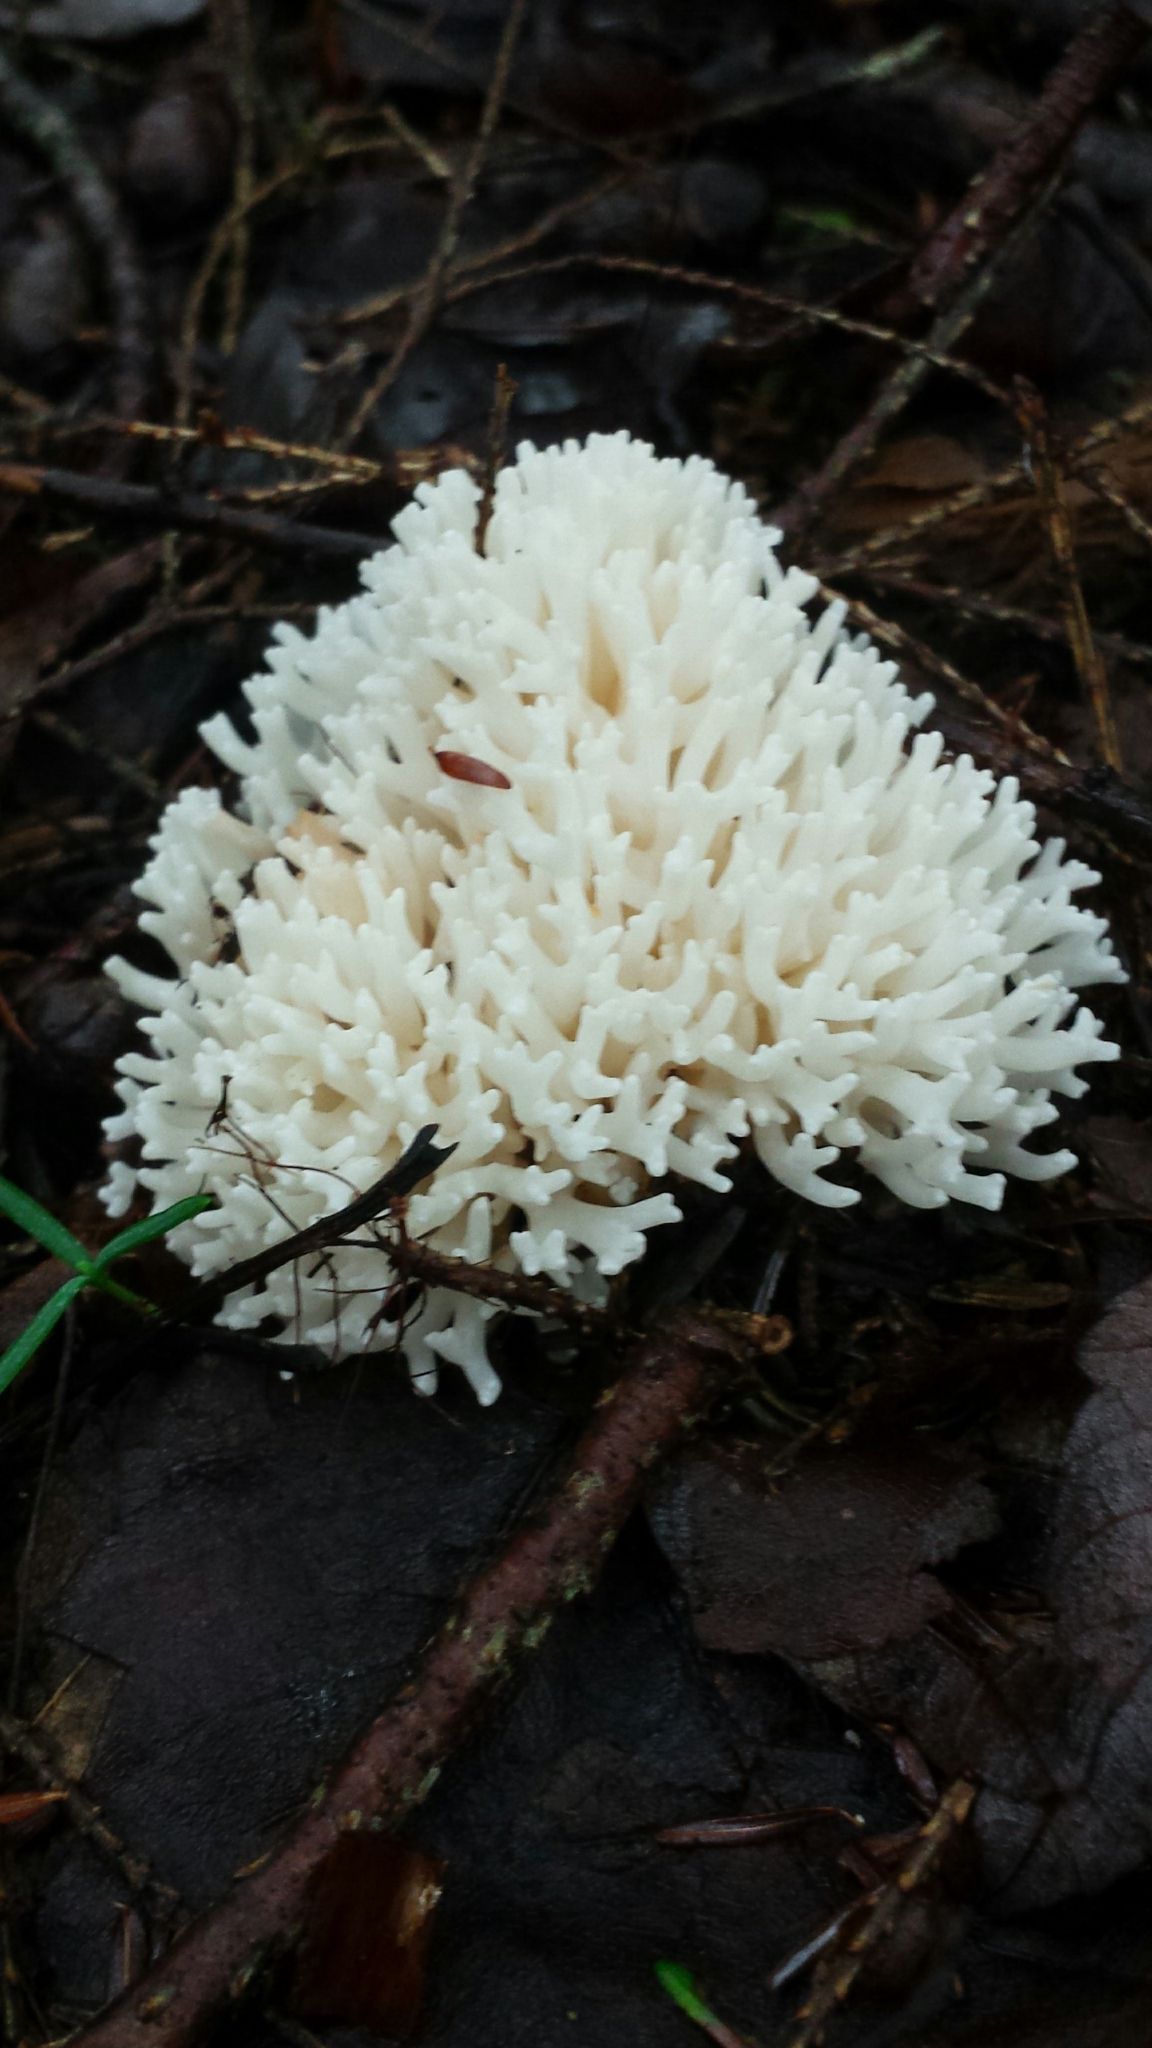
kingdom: Fungi
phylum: Basidiomycota
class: Agaricomycetes
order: Agaricales
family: Clavariaceae
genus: Ramariopsis
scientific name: Ramariopsis kunzei
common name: Ivory coral
